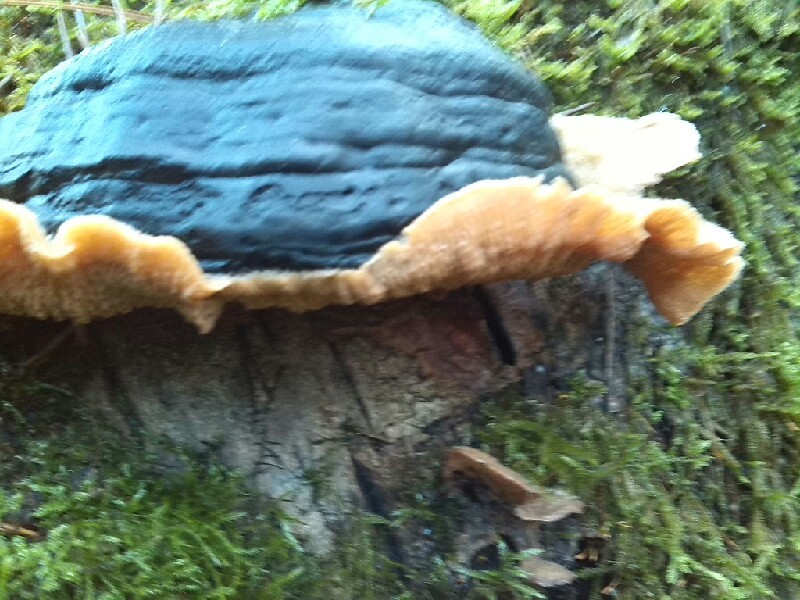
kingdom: Fungi
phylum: Basidiomycota
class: Agaricomycetes
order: Polyporales
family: Meruliaceae
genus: Phlebia
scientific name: Phlebia tremellosa
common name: Jelly rot
